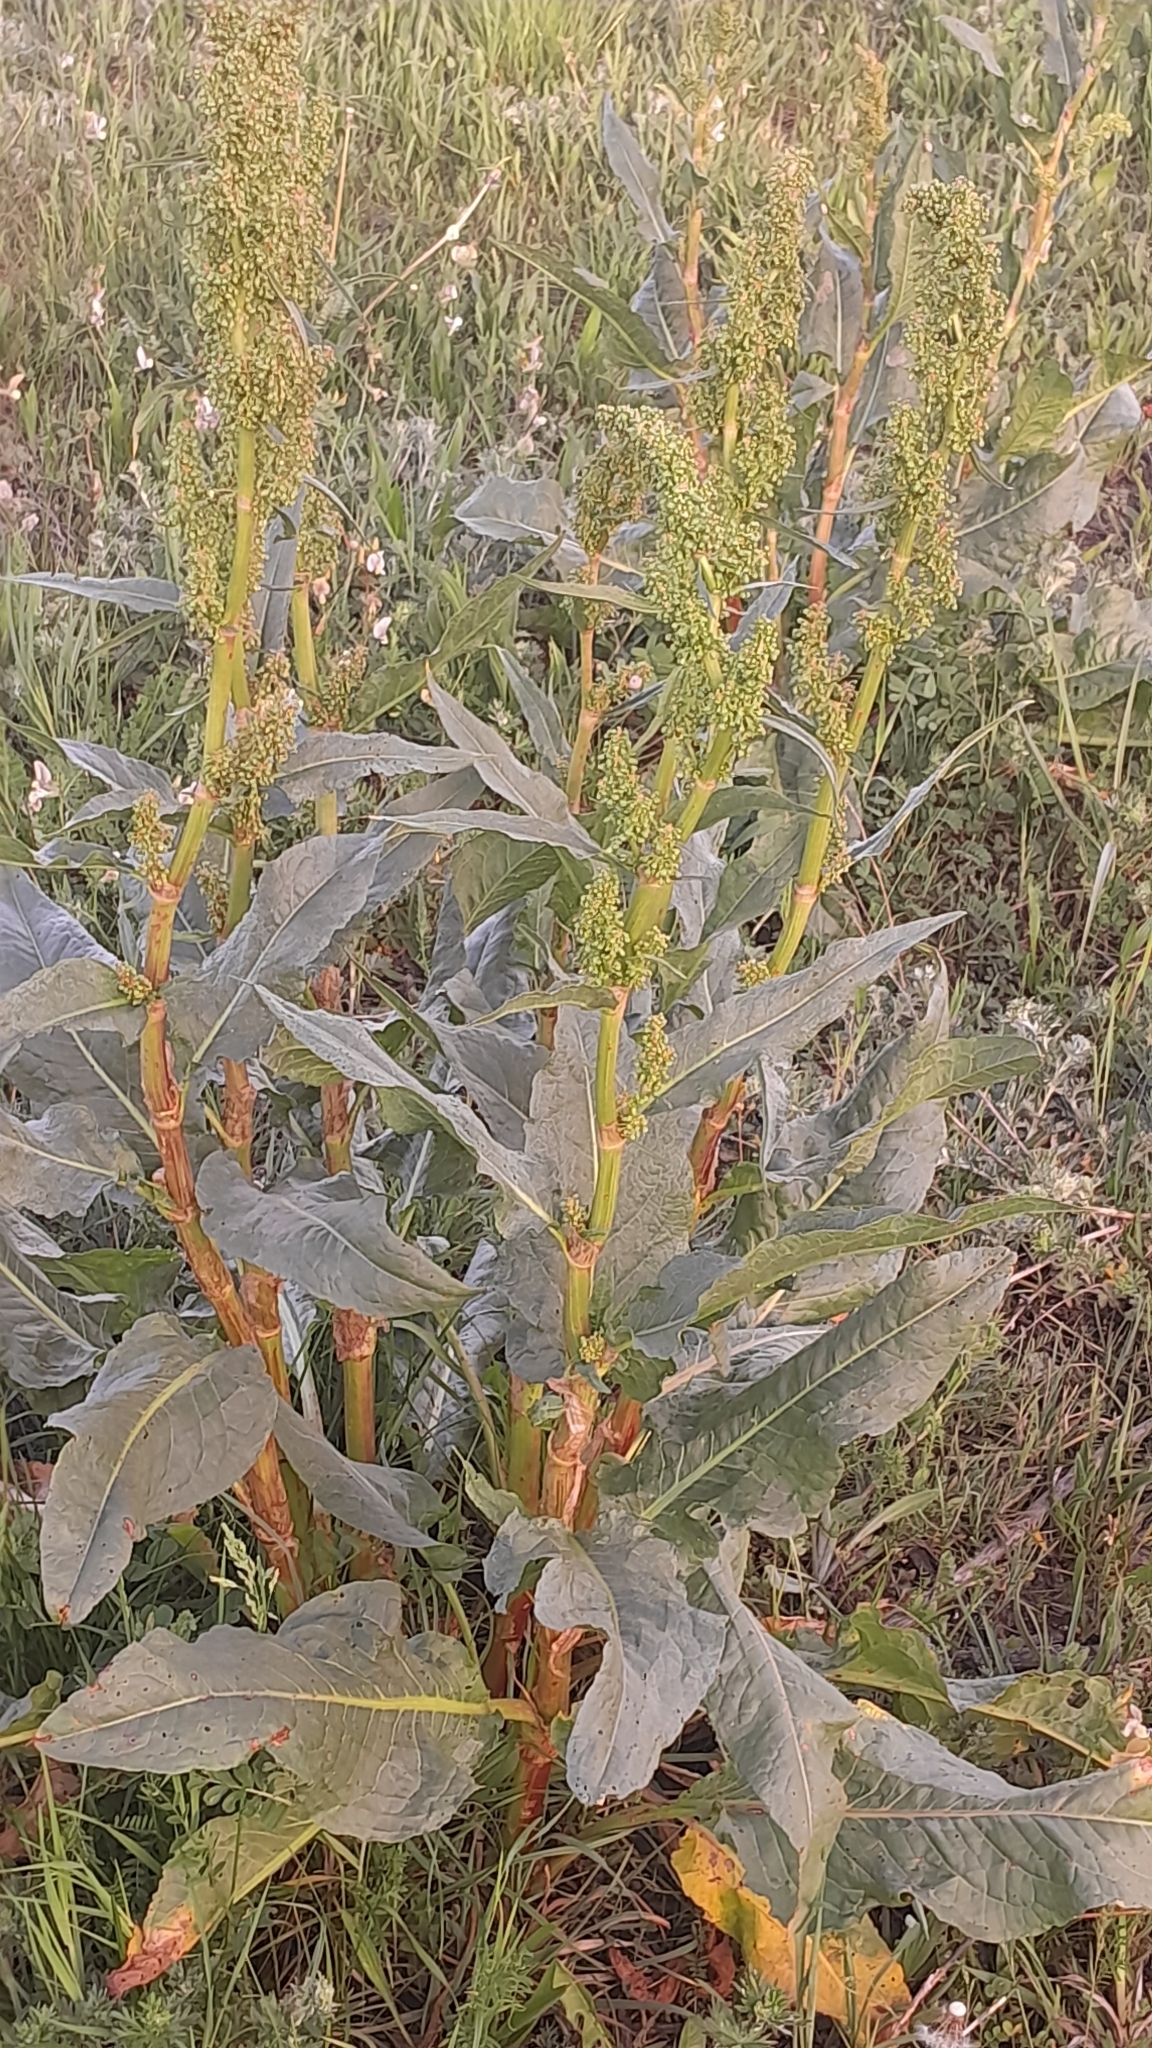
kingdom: Plantae
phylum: Tracheophyta
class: Magnoliopsida
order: Caryophyllales
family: Polygonaceae
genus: Rumex
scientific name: Rumex patientia
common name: Patience dock
